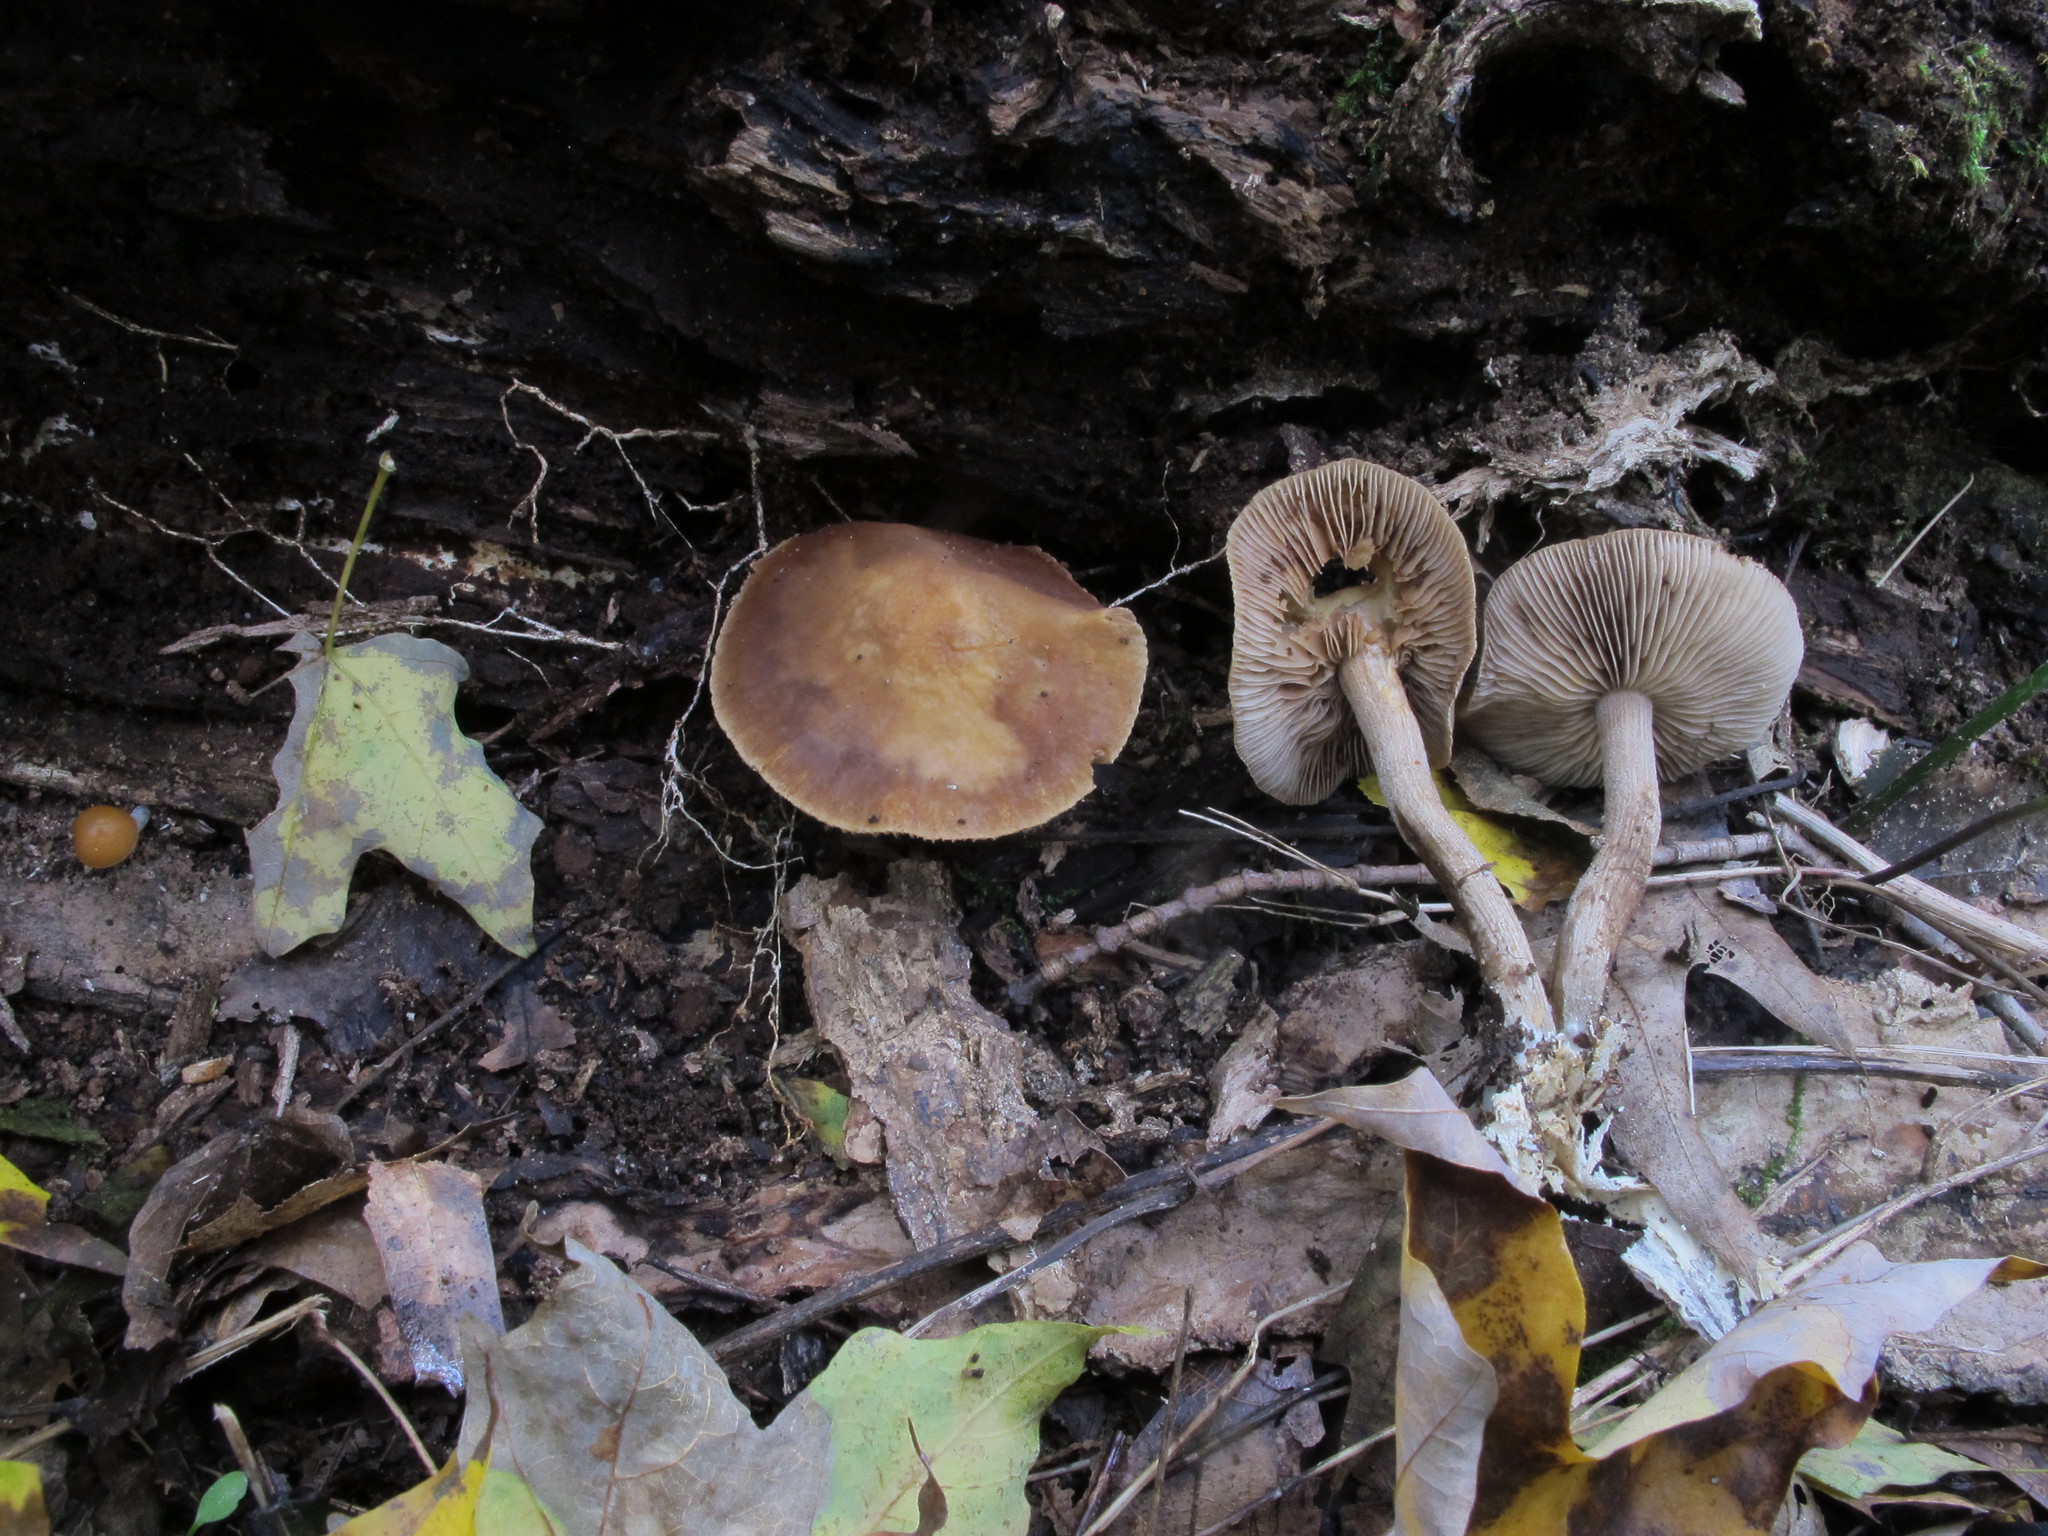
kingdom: Fungi
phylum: Basidiomycota
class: Agaricomycetes
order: Agaricales
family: Strophariaceae
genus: Agrocybe
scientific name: Agrocybe firma
